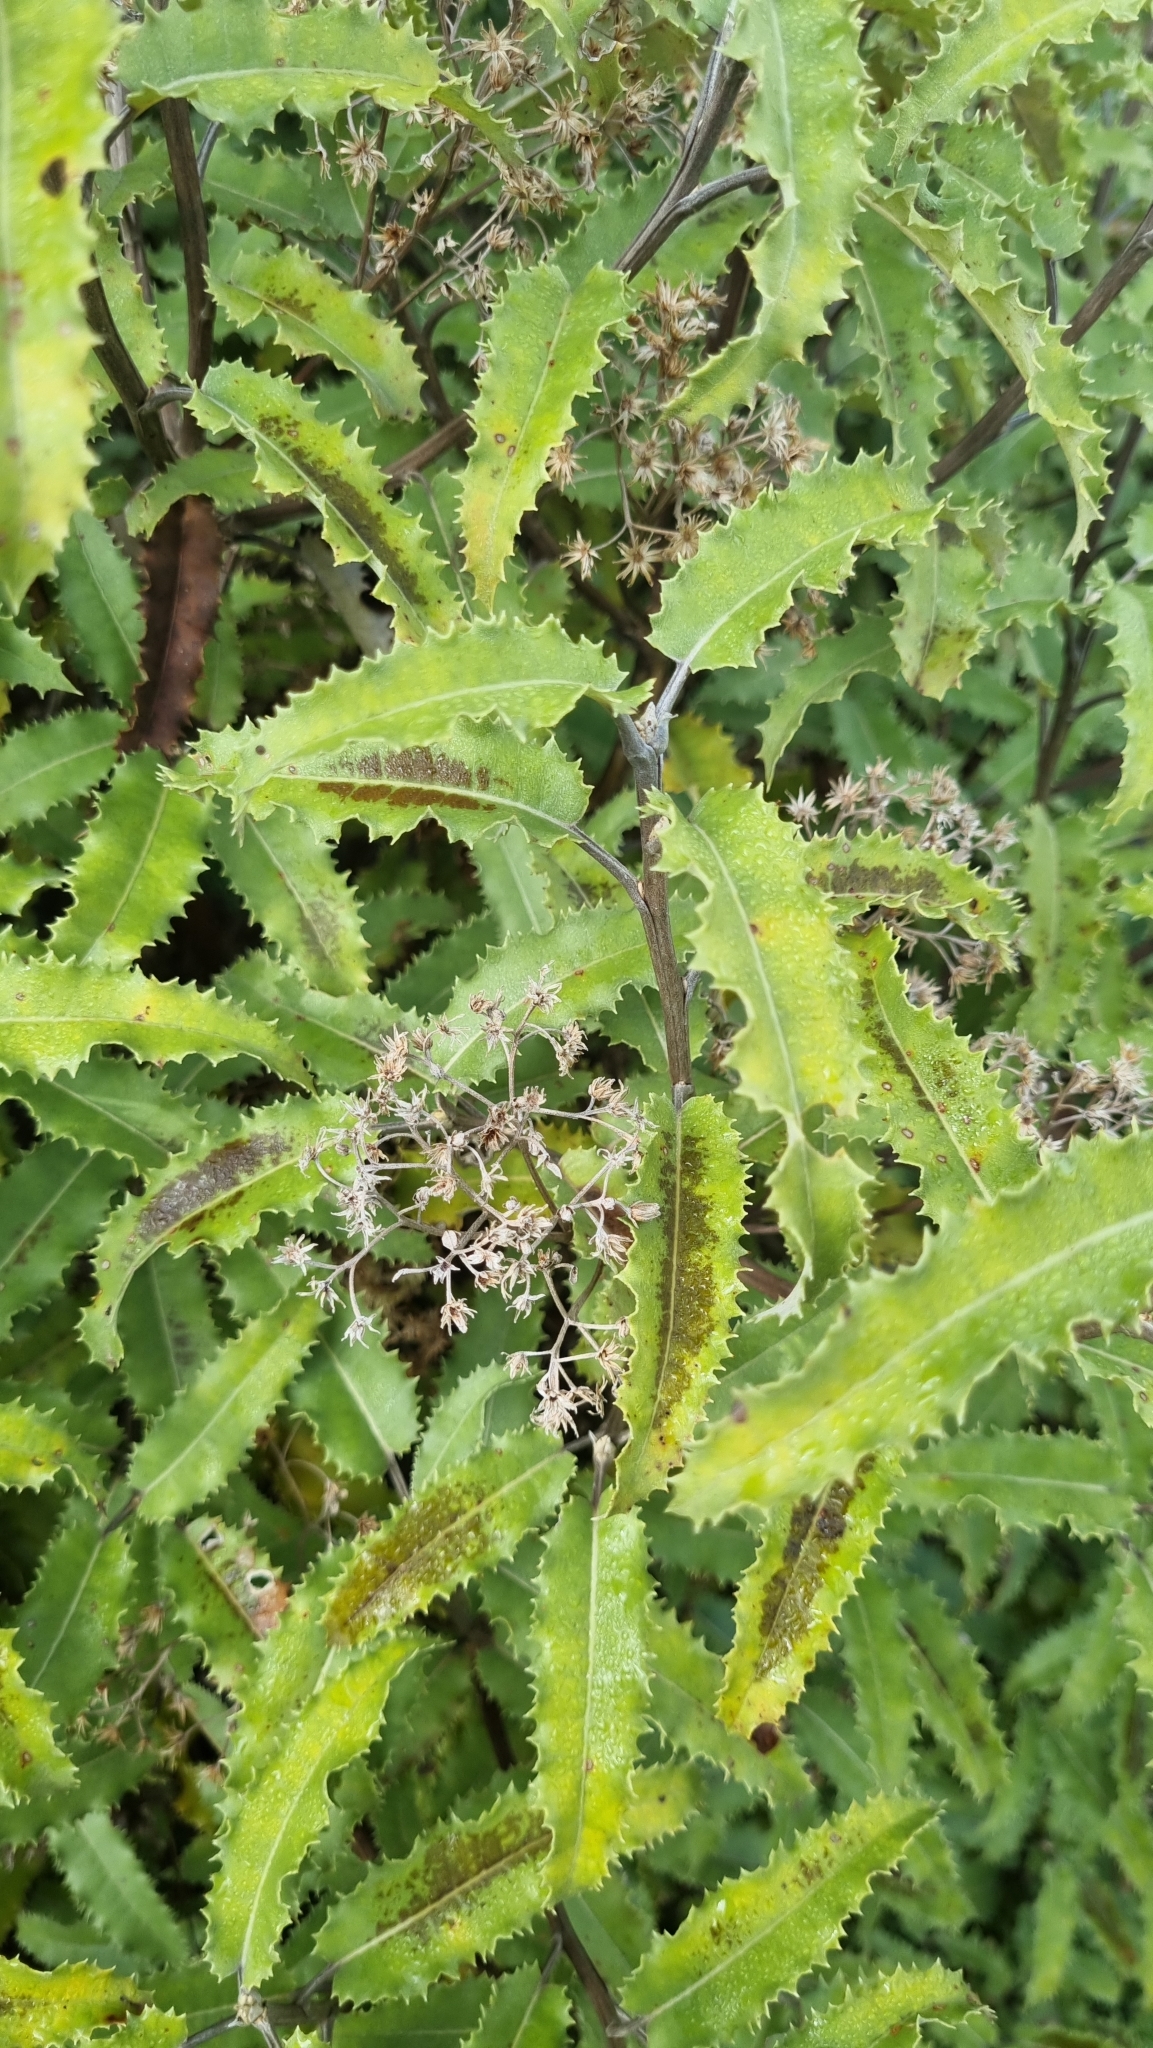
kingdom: Plantae
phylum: Tracheophyta
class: Magnoliopsida
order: Asterales
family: Asteraceae
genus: Olearia
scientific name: Olearia ilicifolia
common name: Maori-holly
